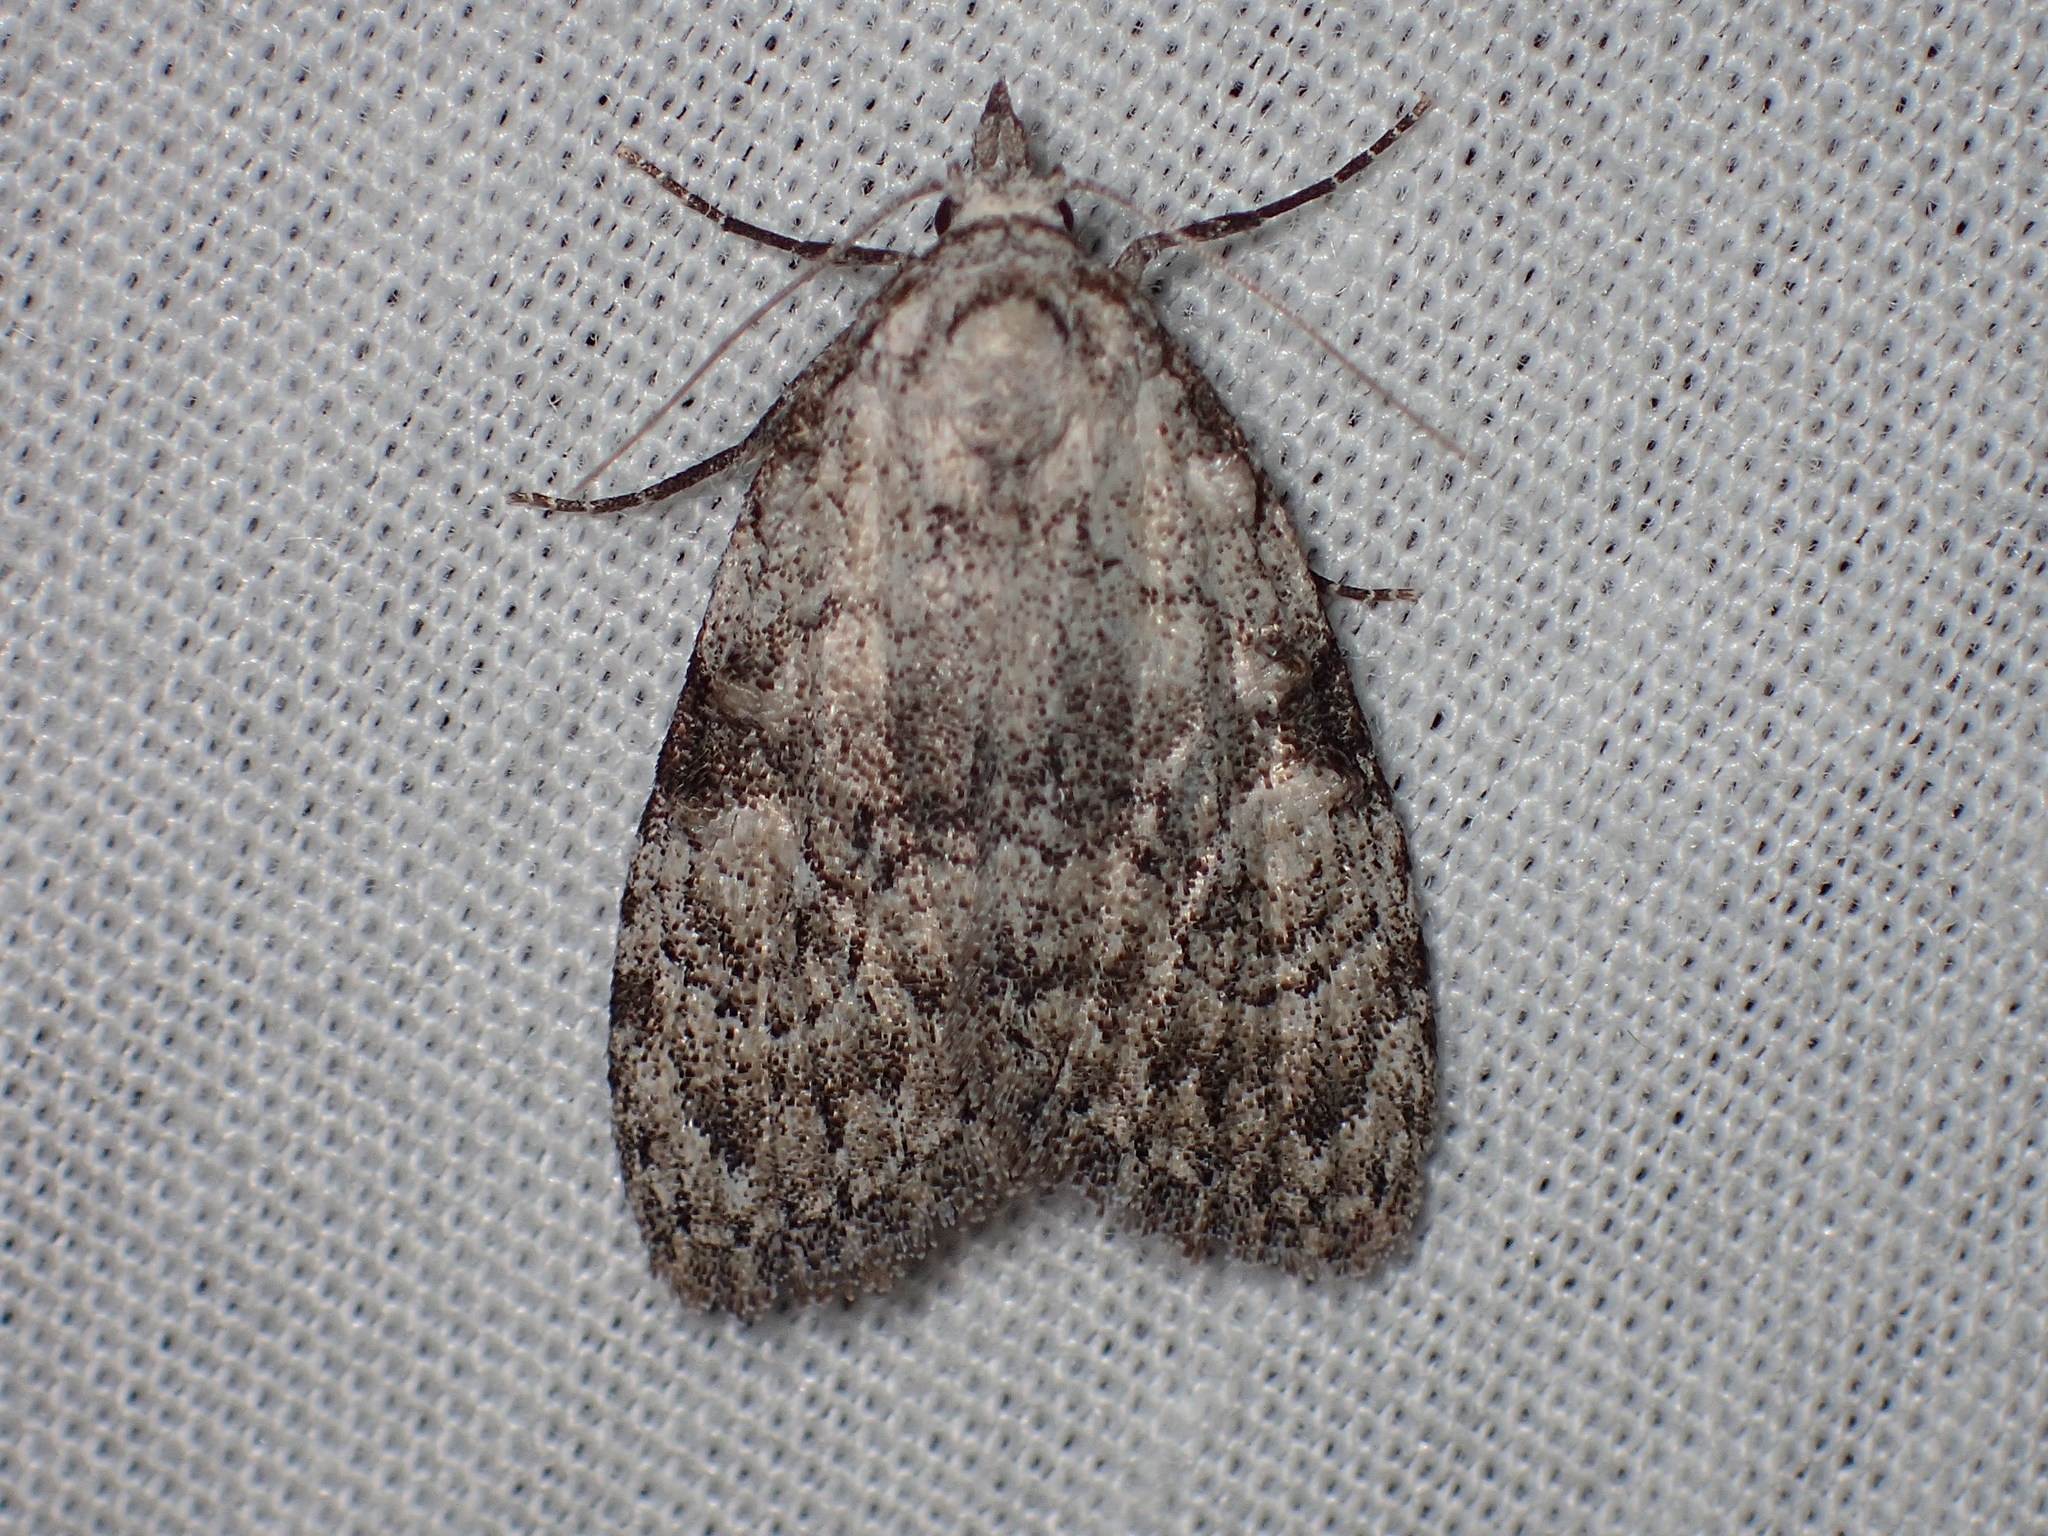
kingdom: Animalia
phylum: Arthropoda
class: Insecta
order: Lepidoptera
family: Nolidae
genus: Meganola
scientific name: Meganola minuscula
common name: Confused meganola moth
